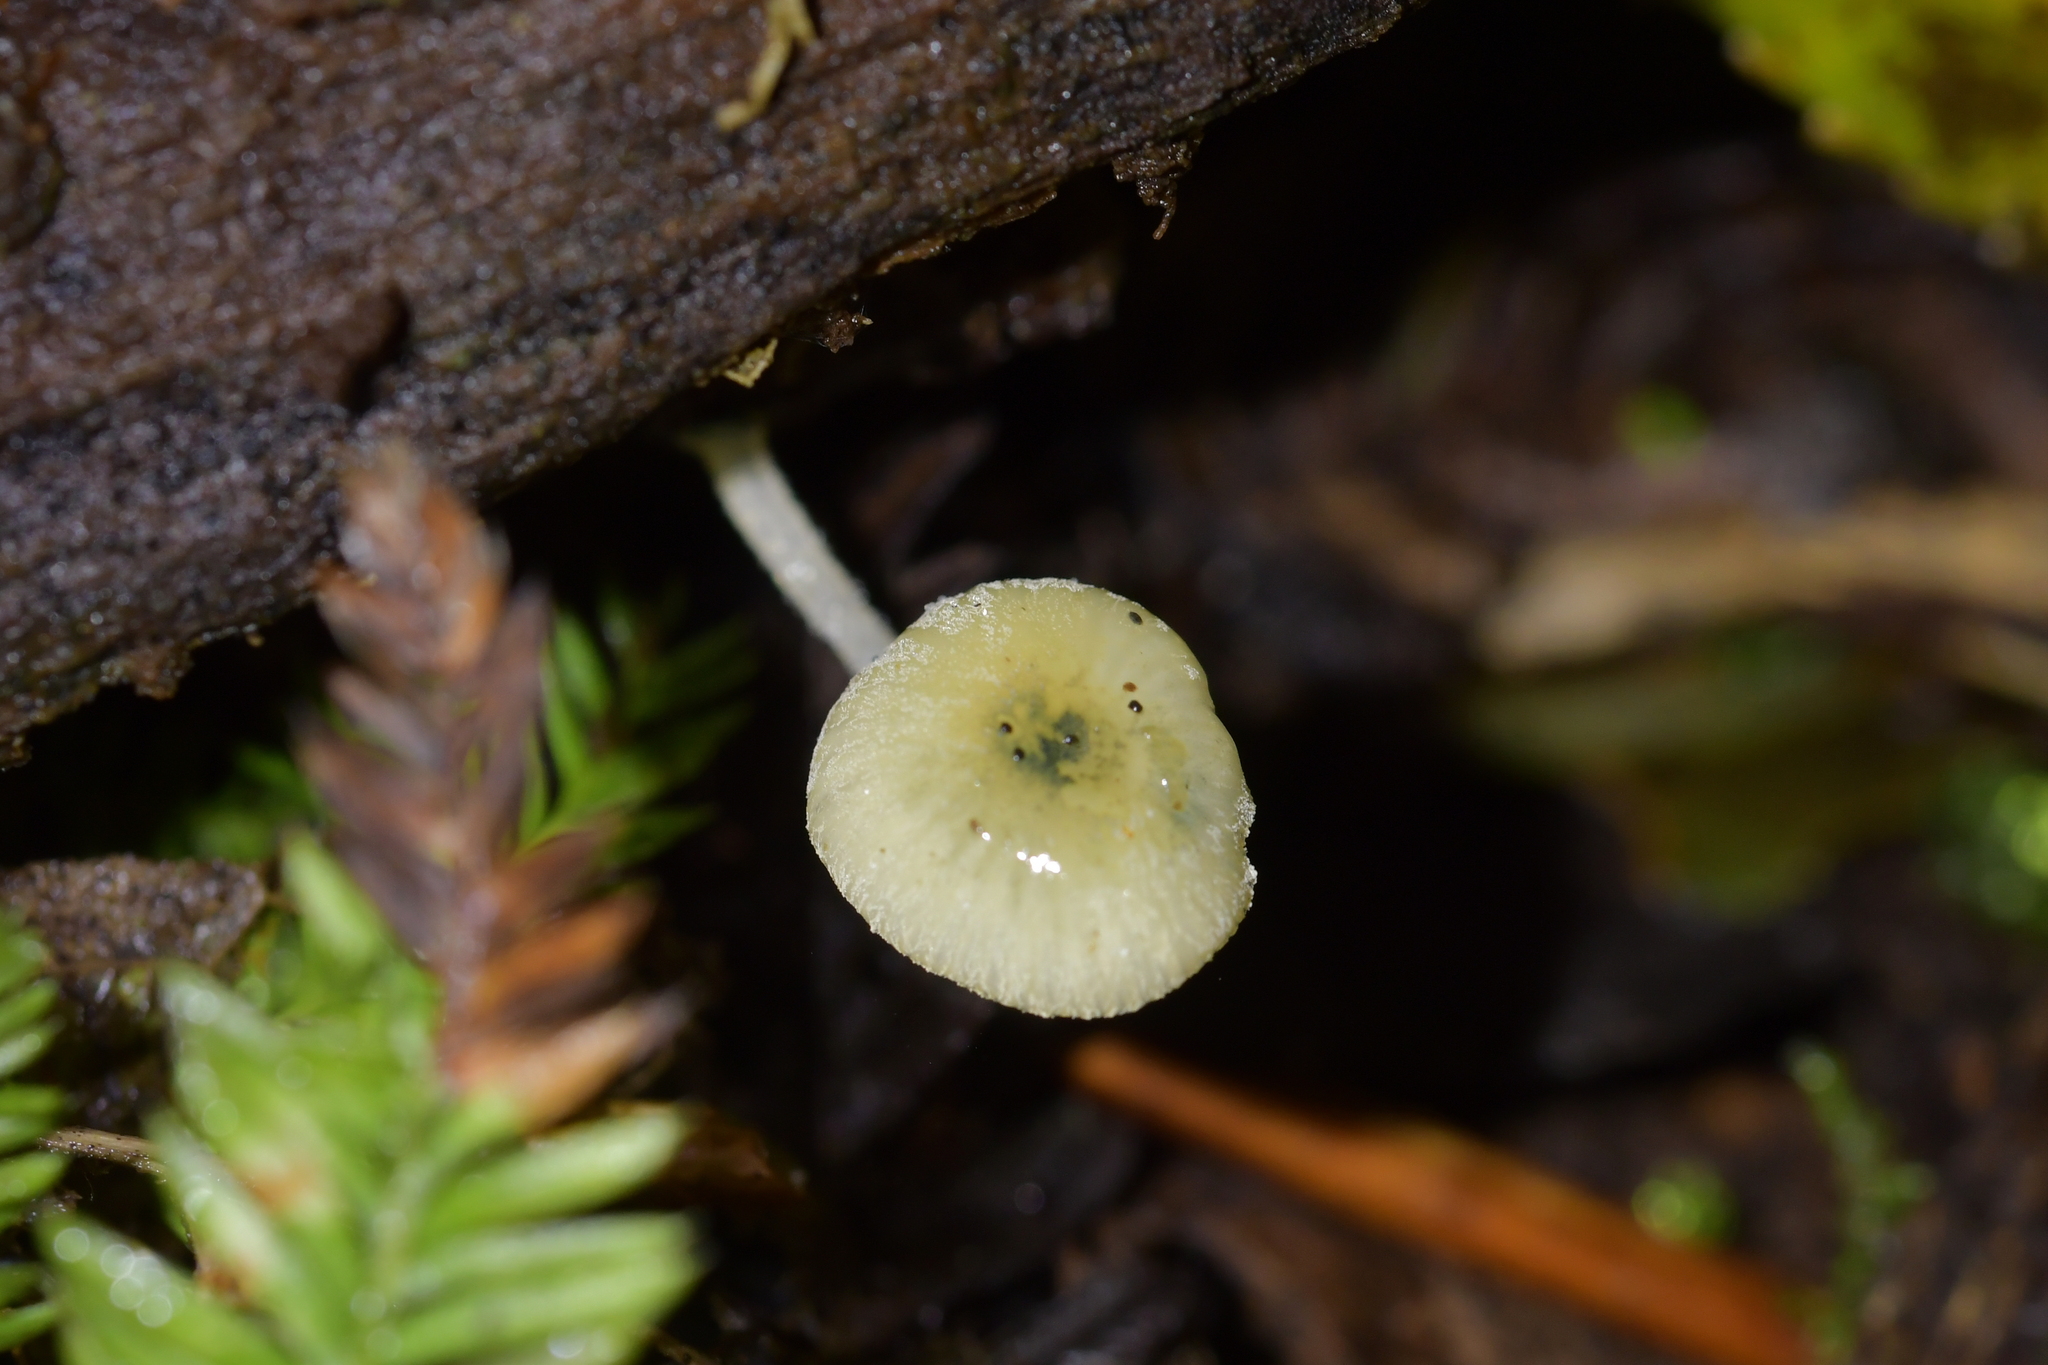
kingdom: Fungi
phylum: Basidiomycota
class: Agaricomycetes
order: Agaricales
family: Mycenaceae
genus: Mycena
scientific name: Mycena interrupta
